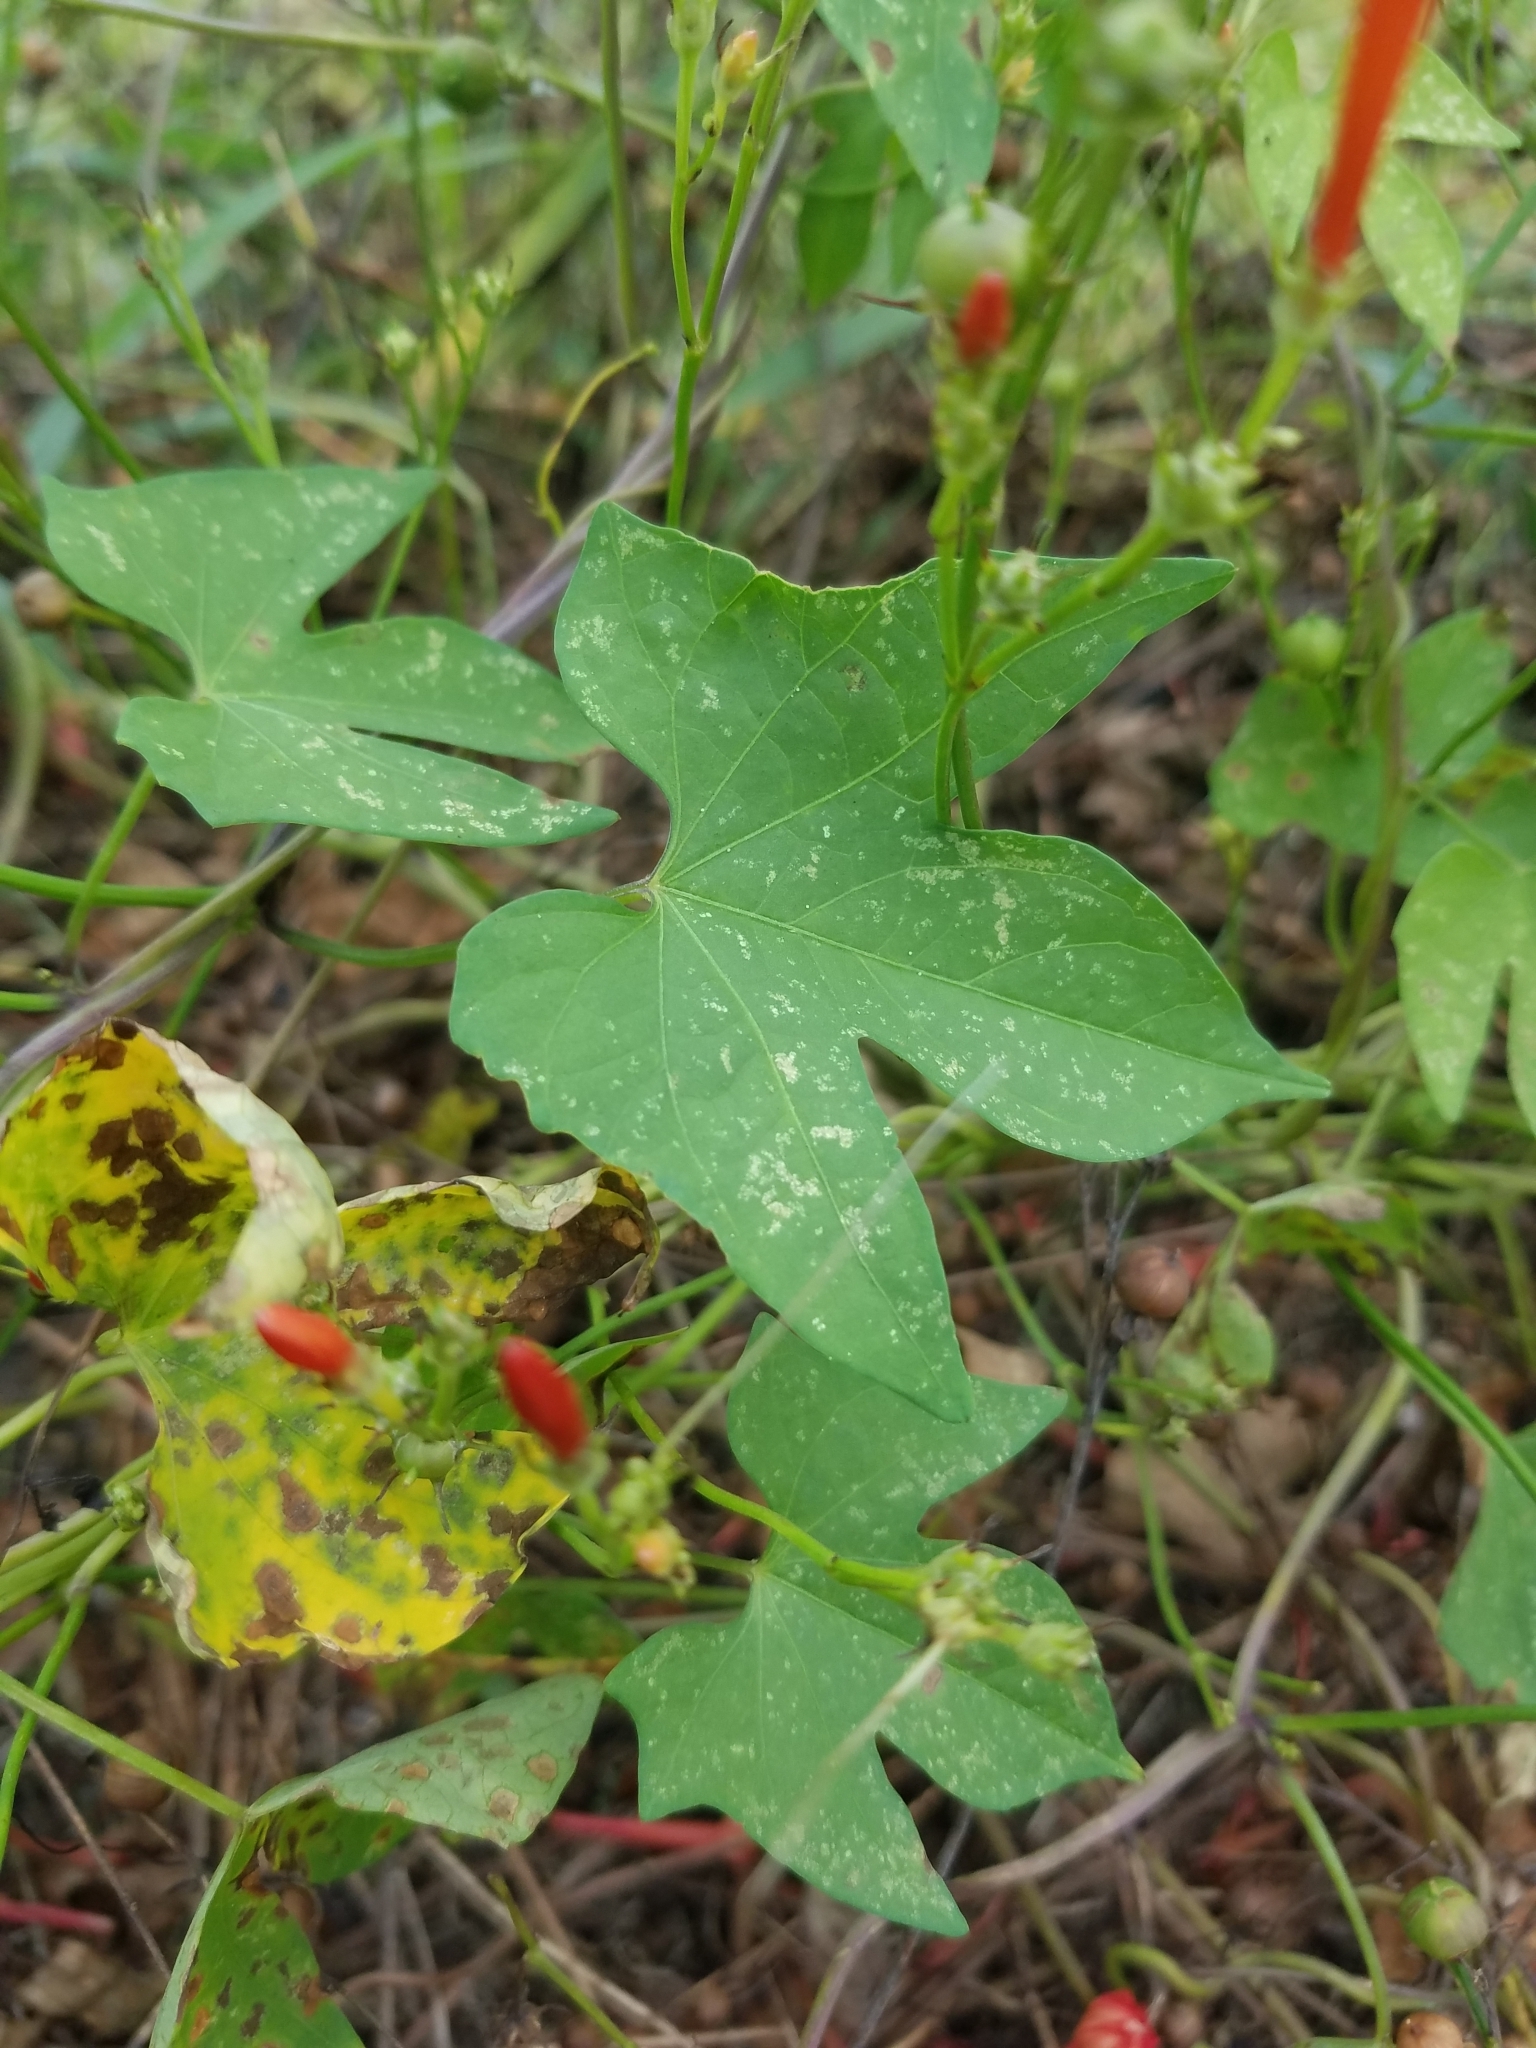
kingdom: Plantae
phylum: Tracheophyta
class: Magnoliopsida
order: Solanales
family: Convolvulaceae
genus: Ipomoea
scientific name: Ipomoea hederifolia
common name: Ivy-leaf morning-glory
